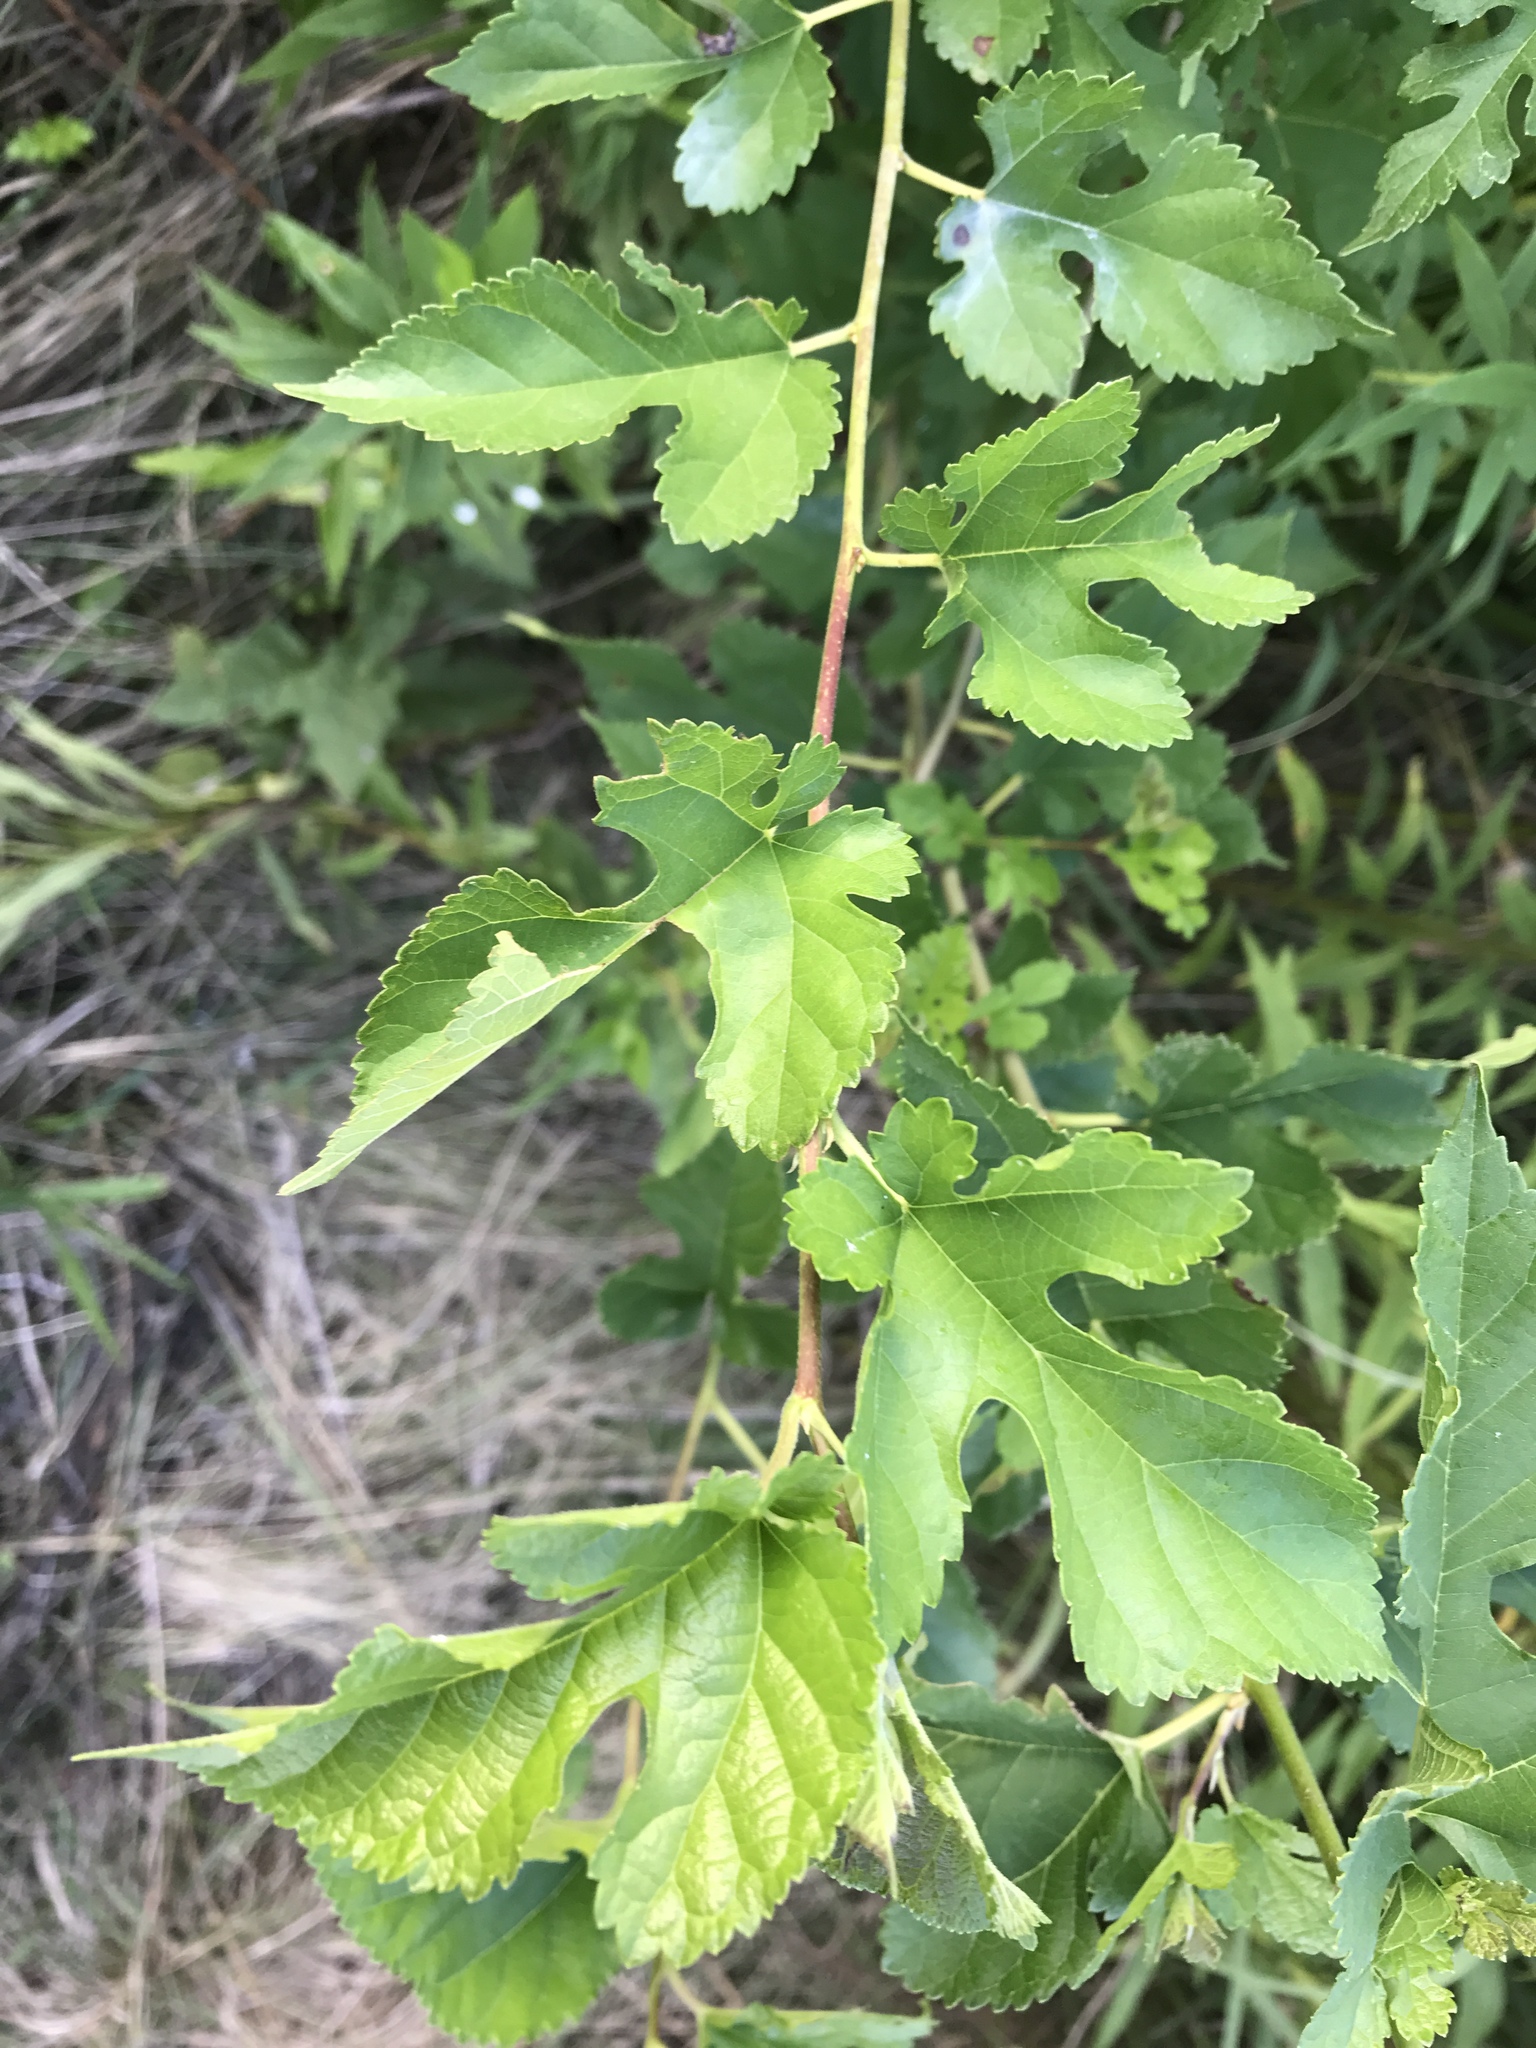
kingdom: Plantae
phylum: Tracheophyta
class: Magnoliopsida
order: Rosales
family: Moraceae
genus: Morus
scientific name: Morus alba
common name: White mulberry
